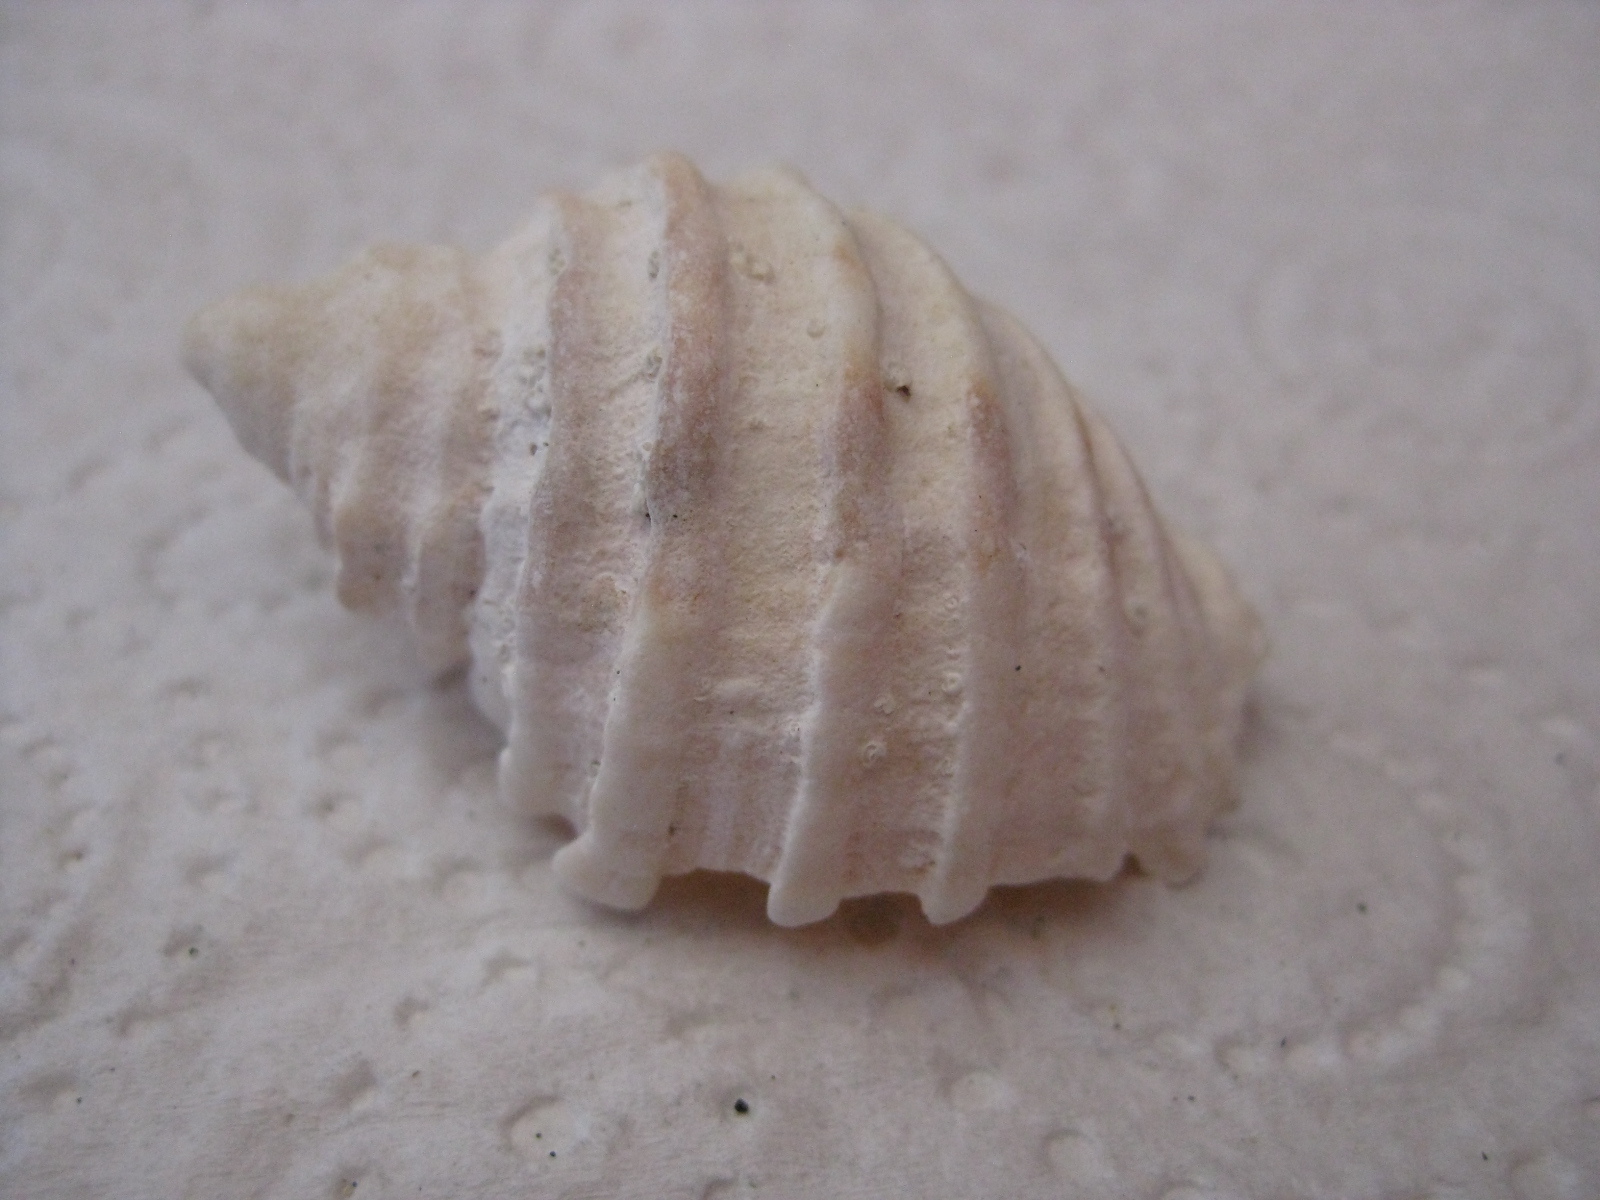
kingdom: Animalia
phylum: Mollusca
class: Gastropoda
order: Neogastropoda
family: Muricidae
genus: Dicathais
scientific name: Dicathais orbita
